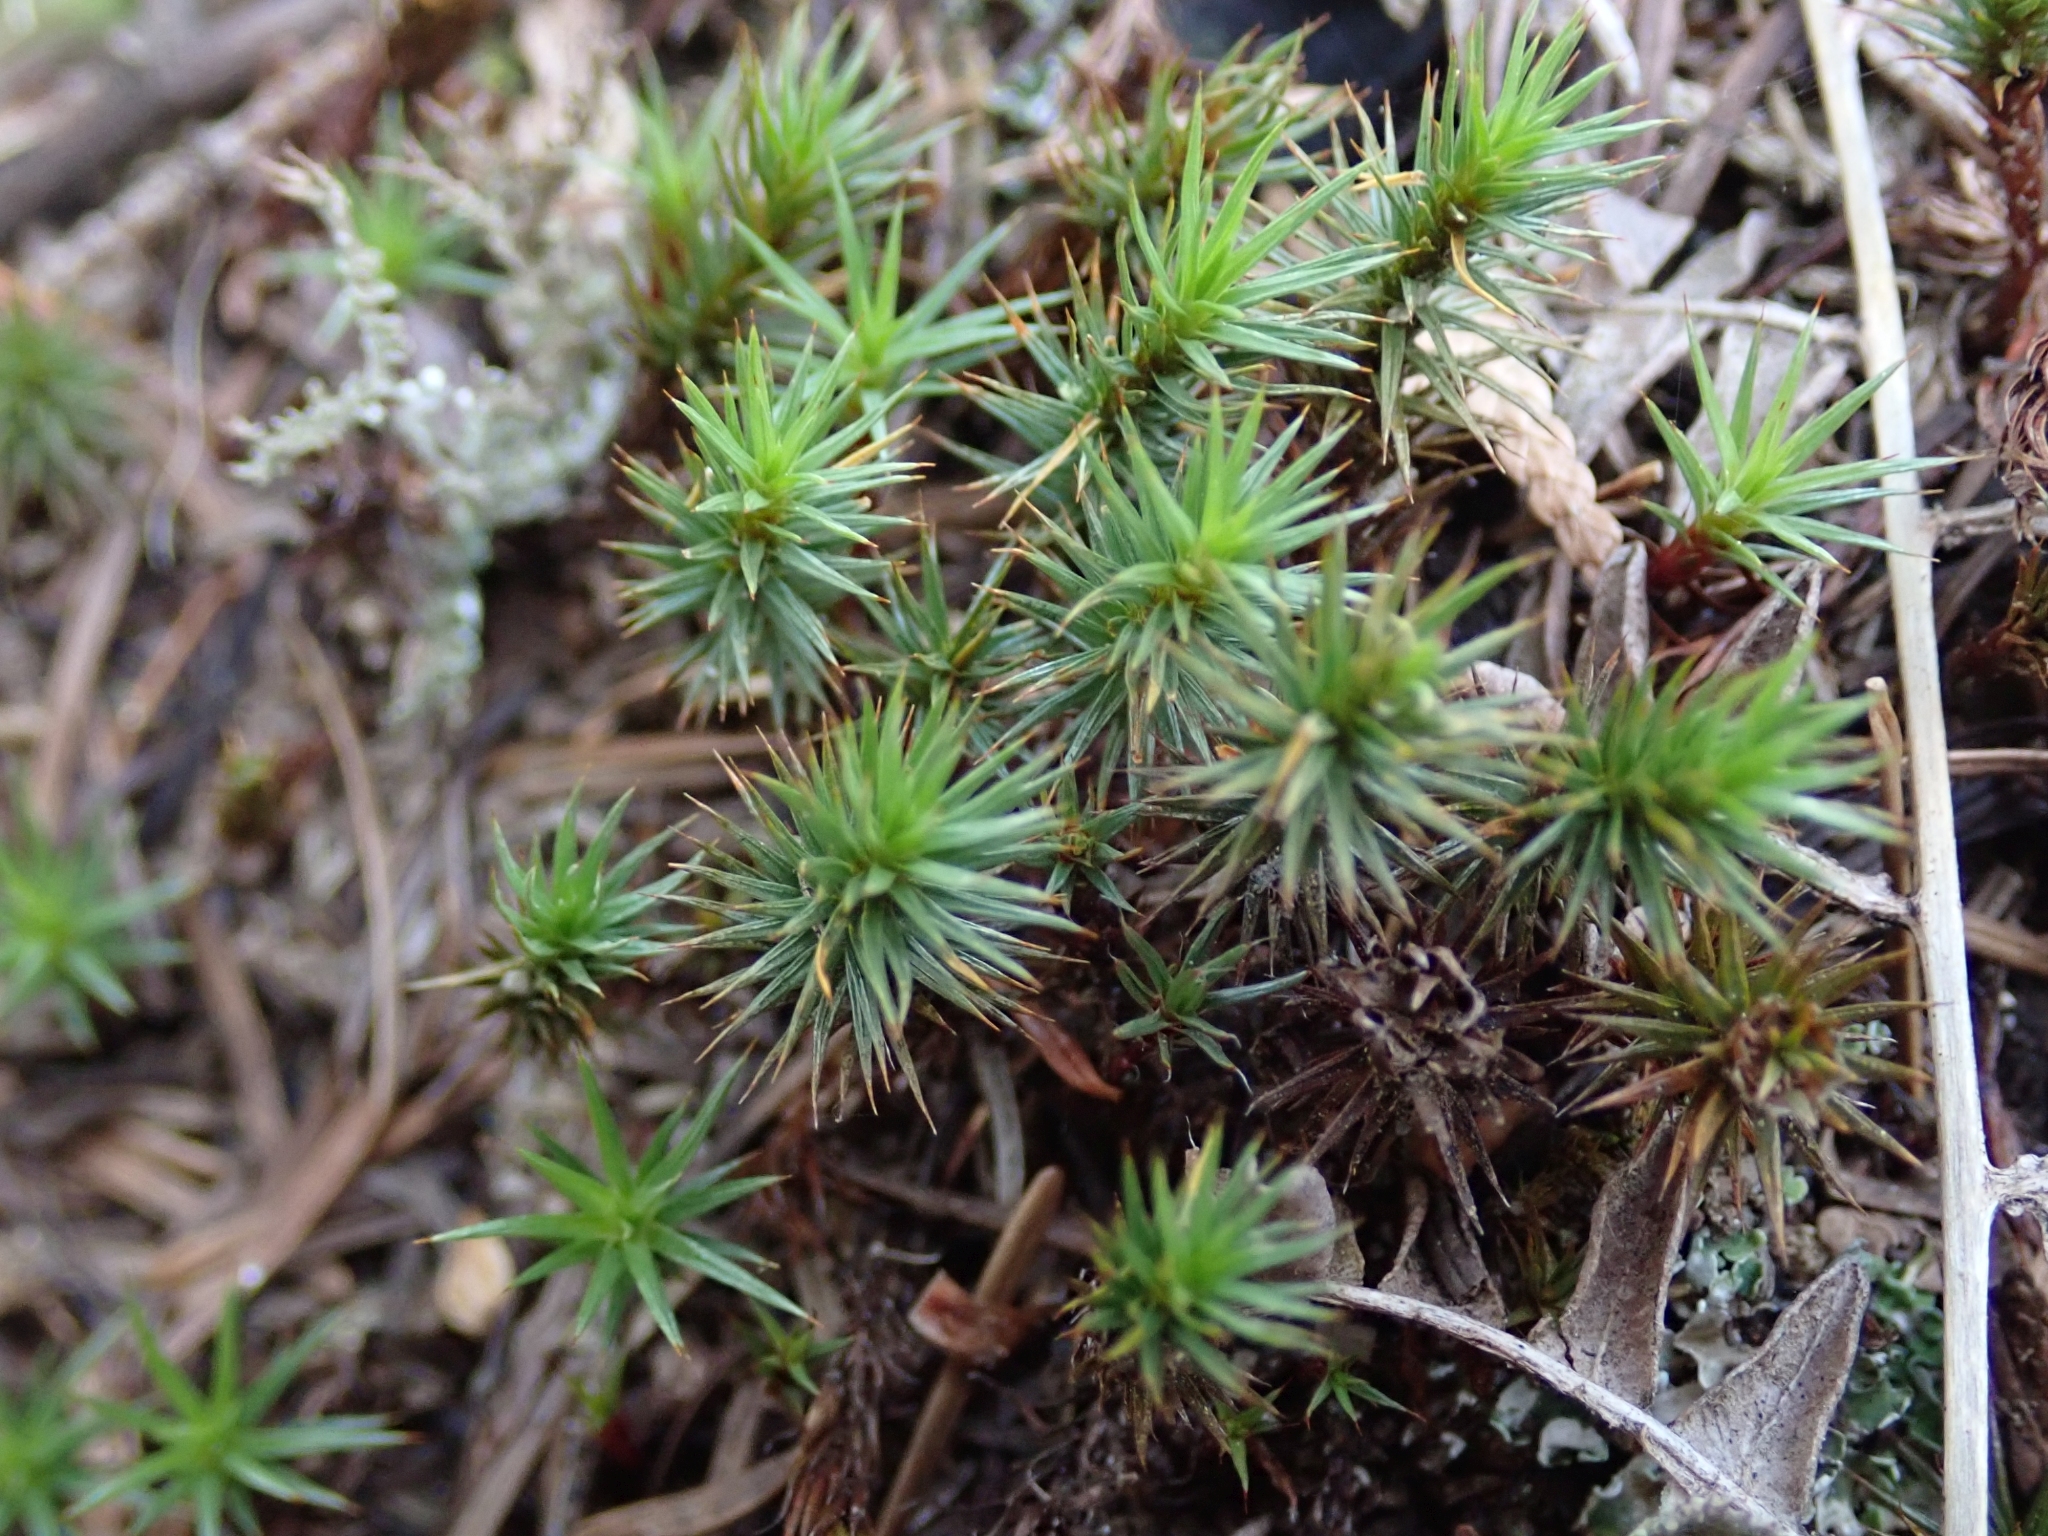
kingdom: Plantae
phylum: Bryophyta
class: Polytrichopsida
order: Polytrichales
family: Polytrichaceae
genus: Polytrichum
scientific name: Polytrichum juniperinum
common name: Juniper haircap moss
